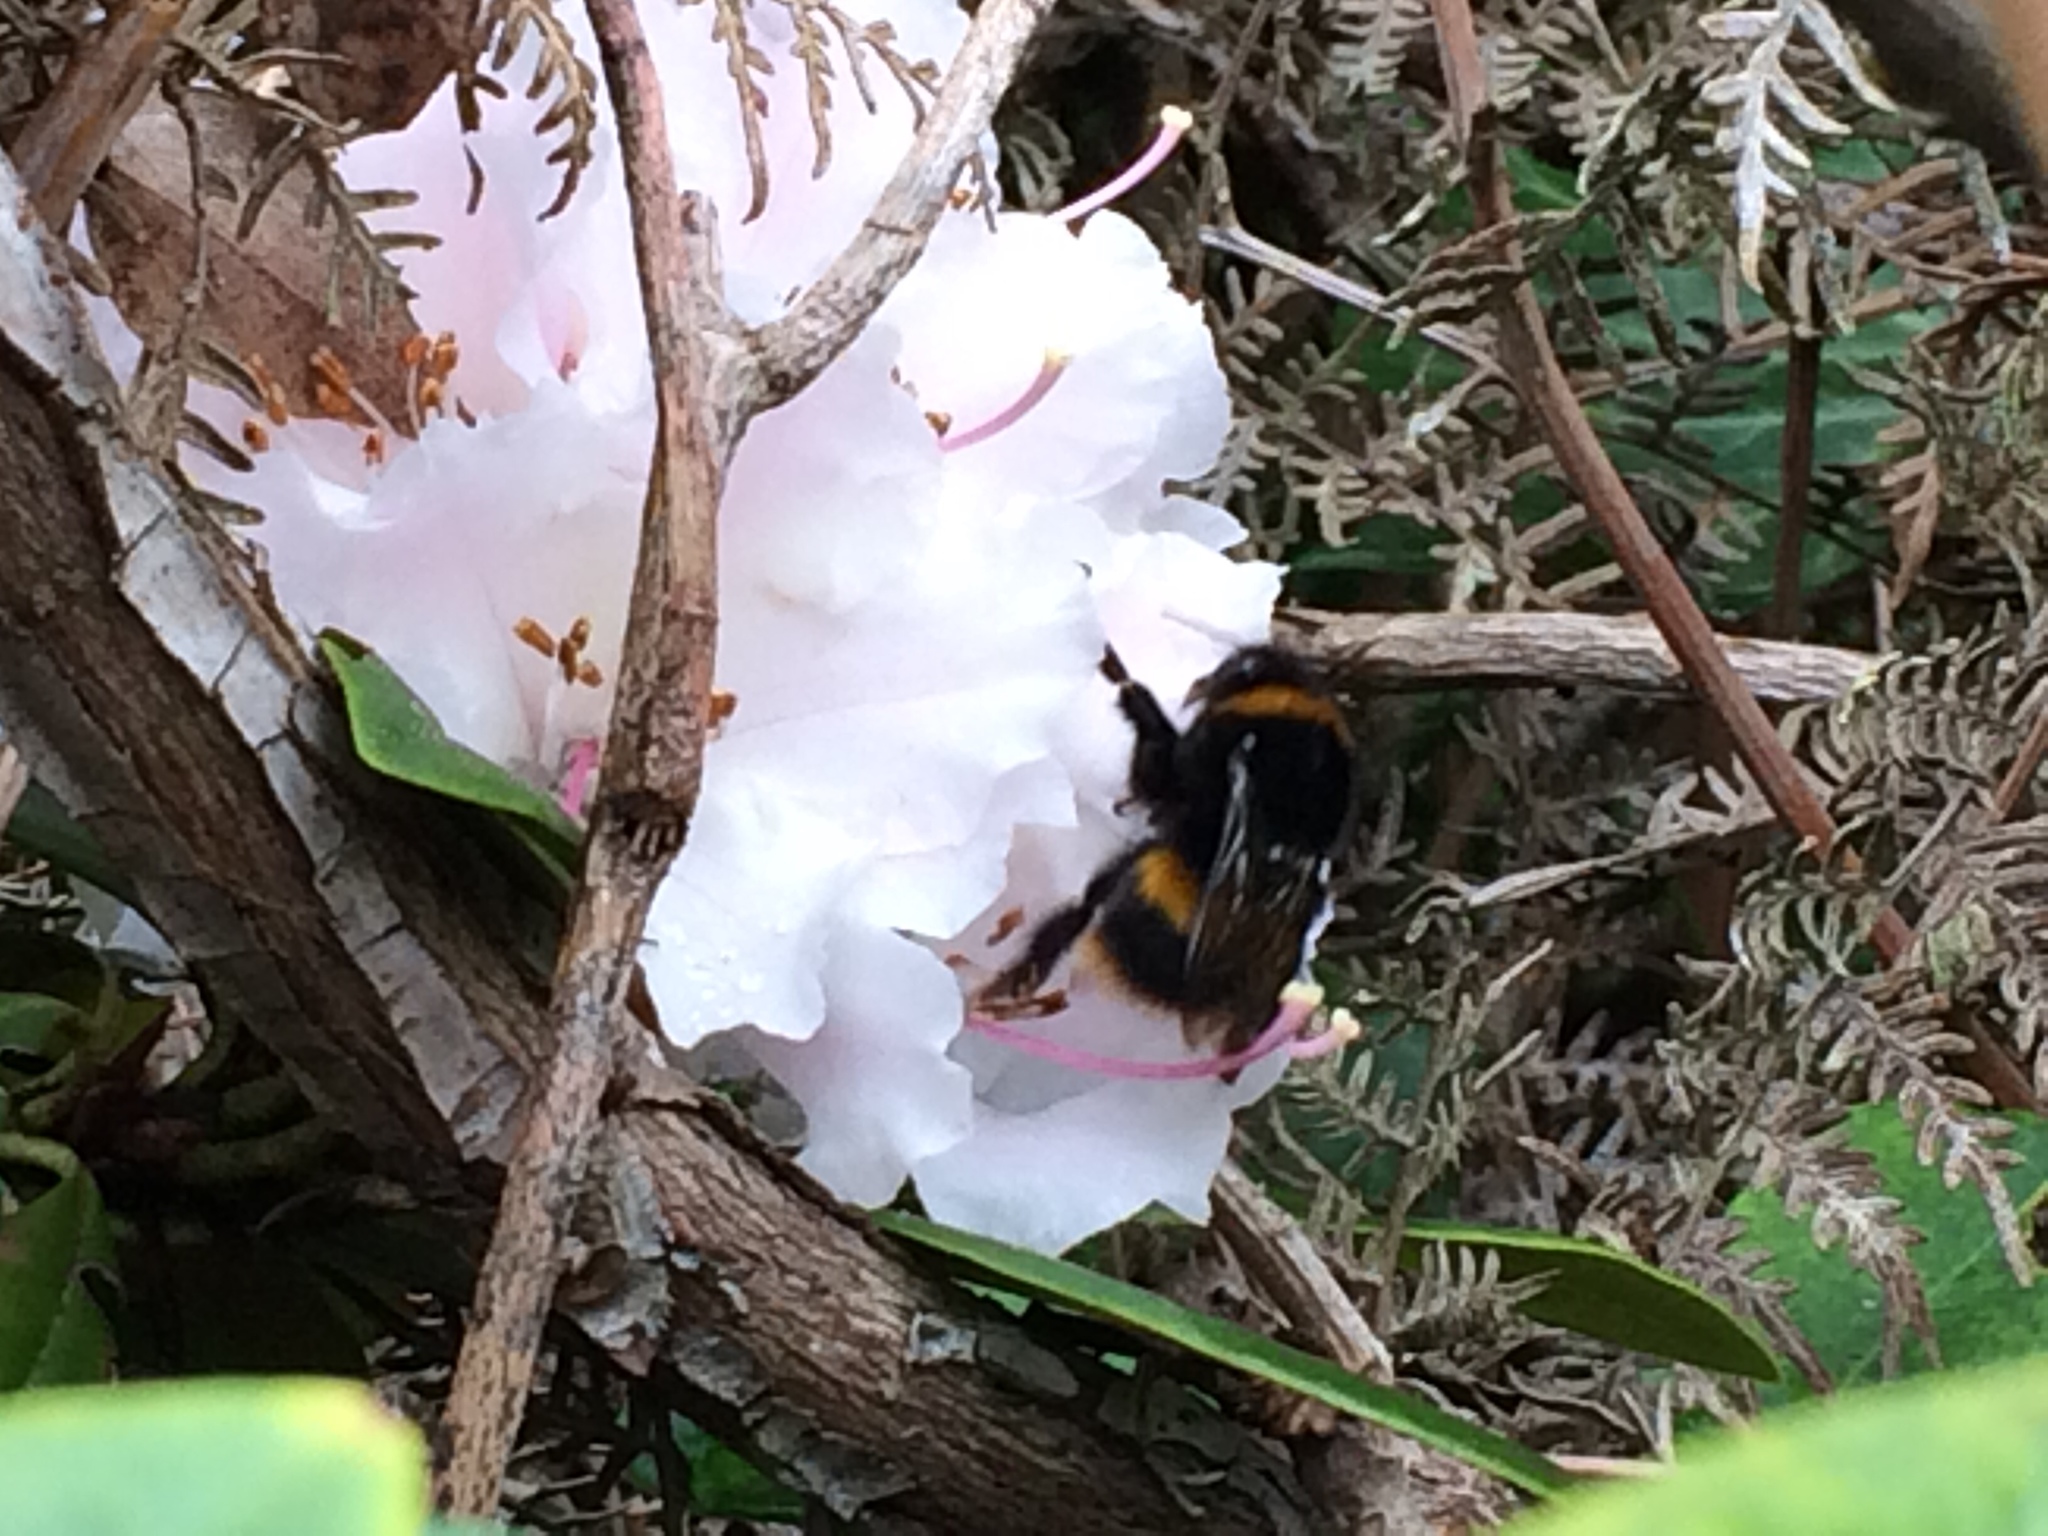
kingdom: Animalia
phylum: Arthropoda
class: Insecta
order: Hymenoptera
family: Apidae
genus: Bombus
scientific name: Bombus terrestris
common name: Buff-tailed bumblebee
